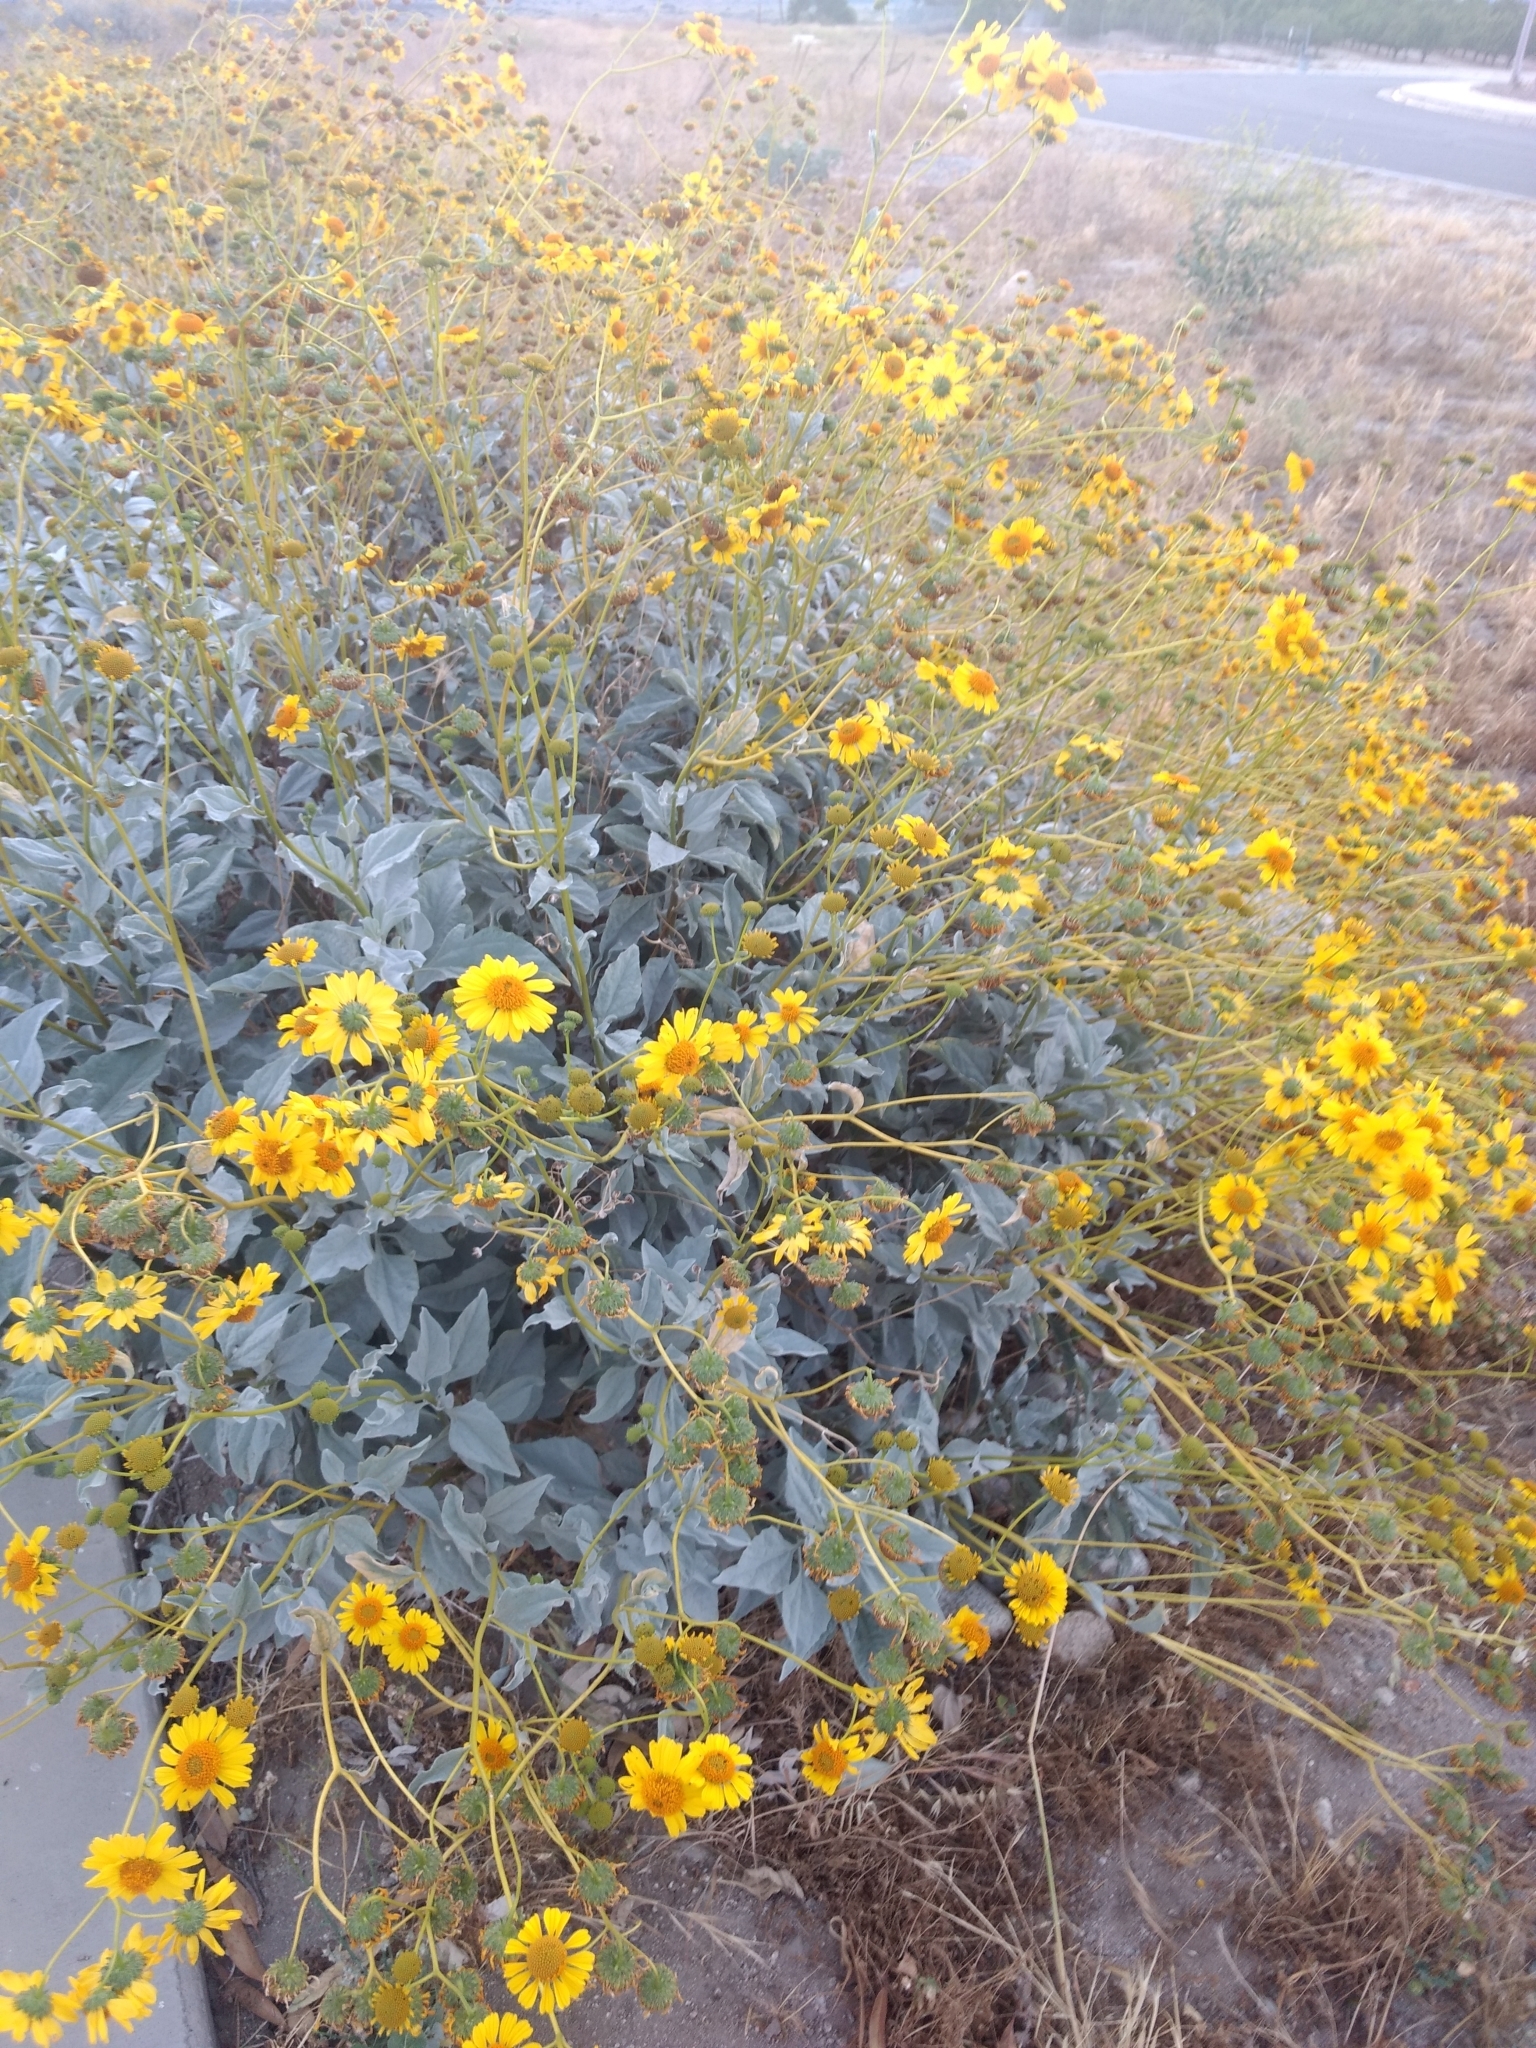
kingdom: Plantae
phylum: Tracheophyta
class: Magnoliopsida
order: Asterales
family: Asteraceae
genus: Encelia
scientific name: Encelia farinosa
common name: Brittlebush
